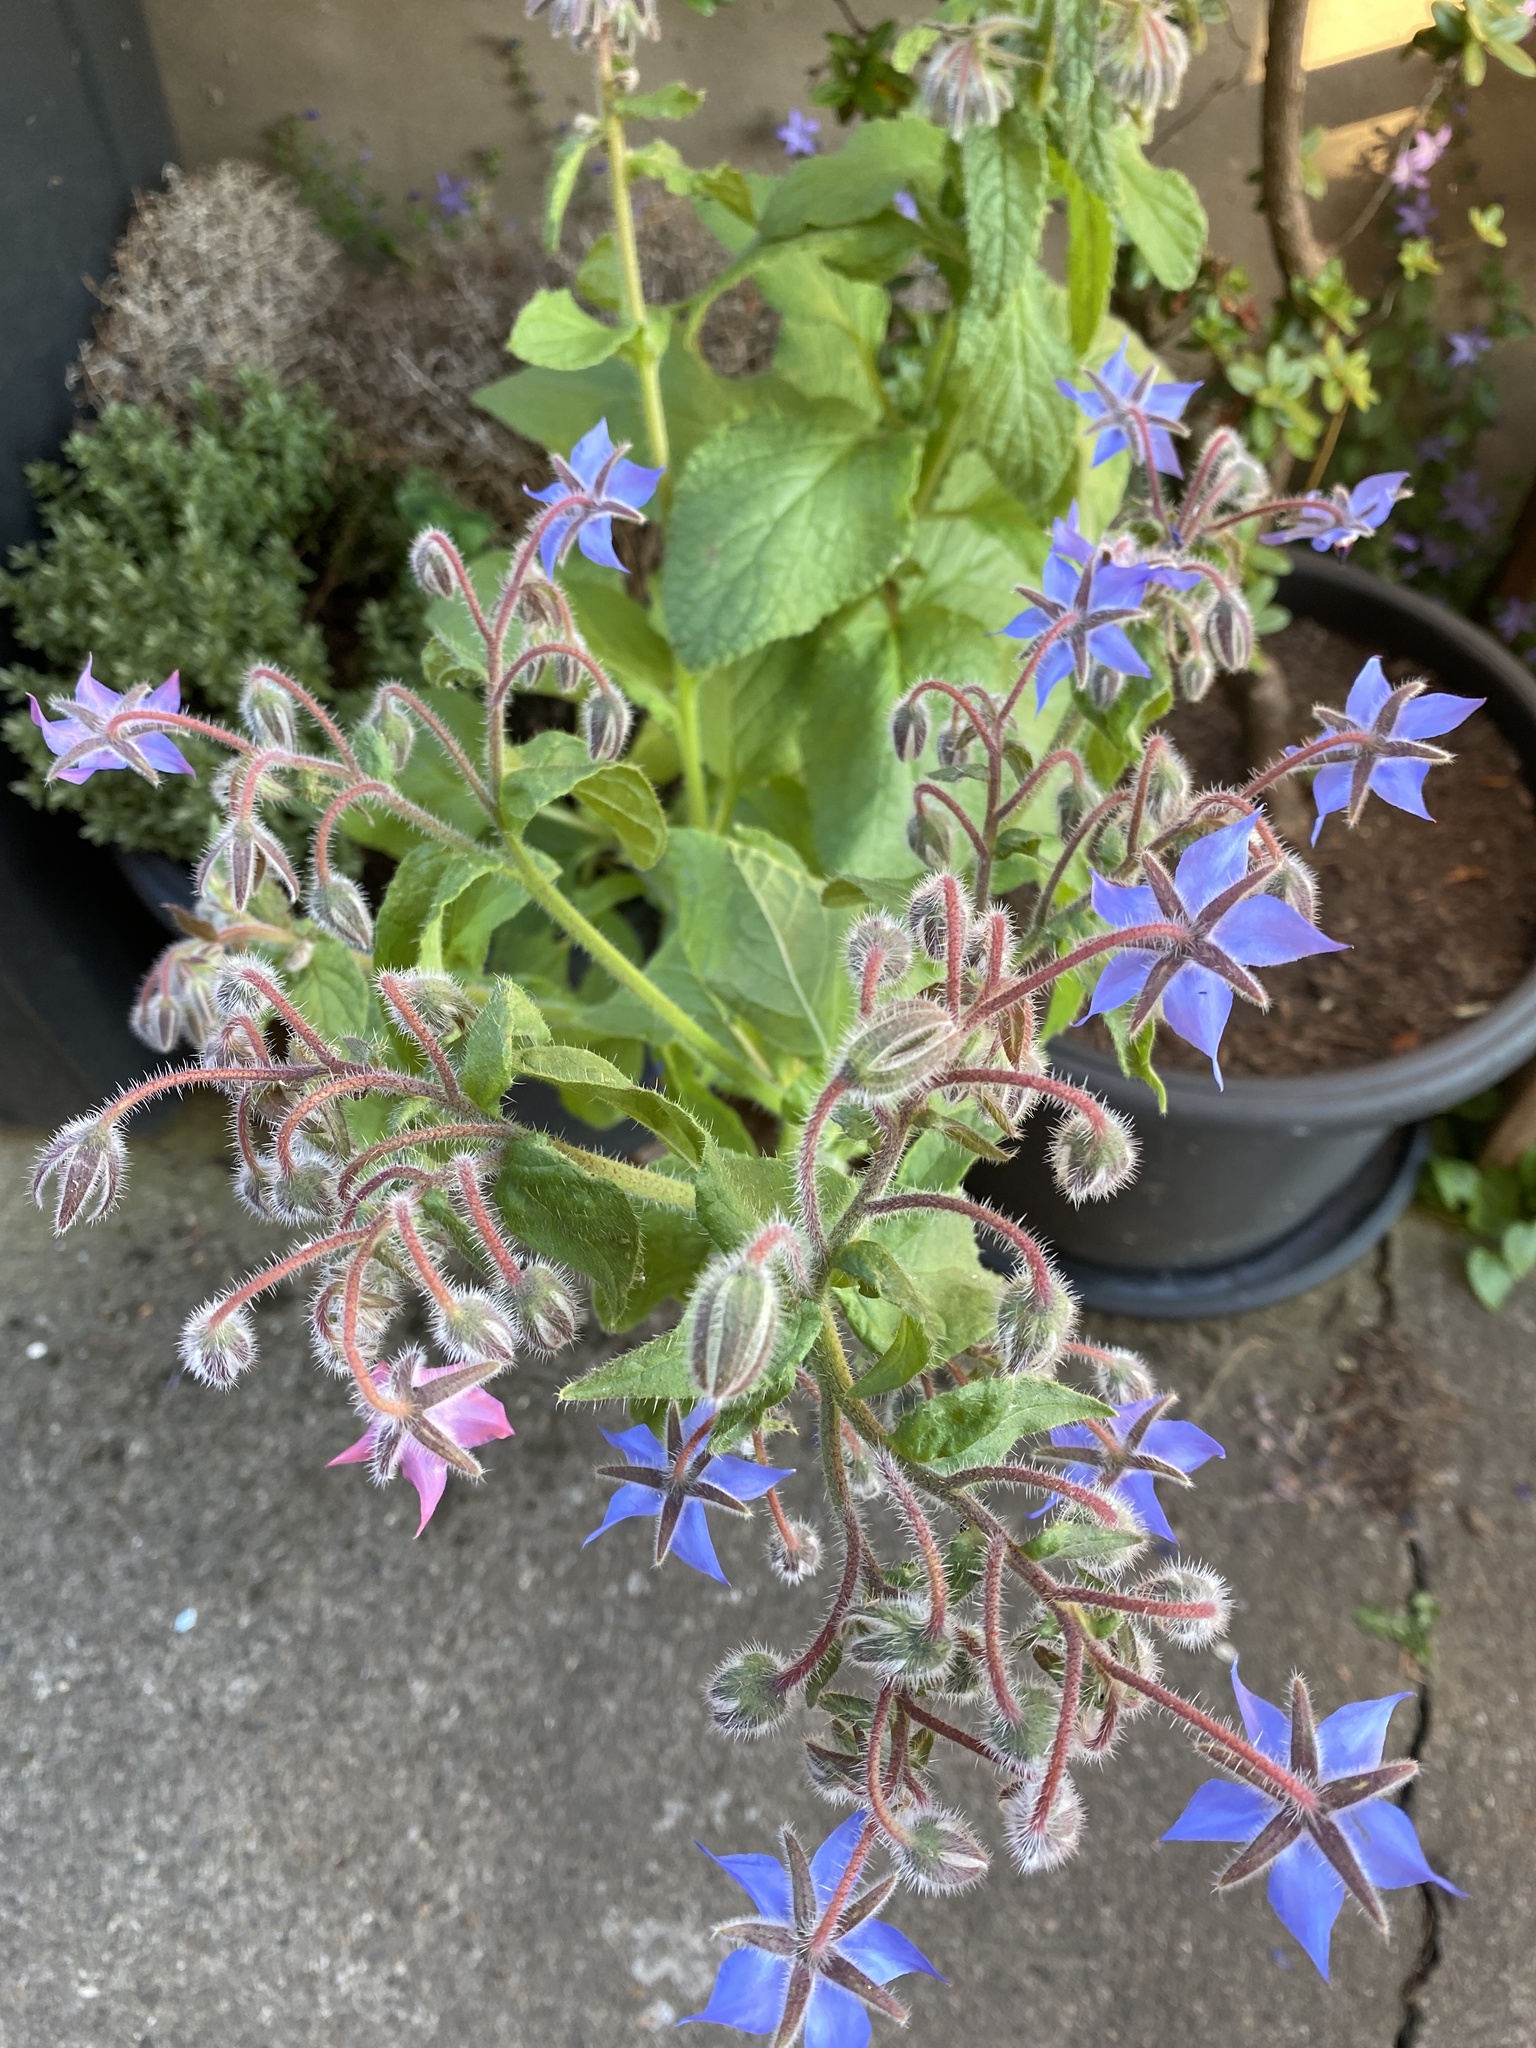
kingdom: Plantae
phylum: Tracheophyta
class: Magnoliopsida
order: Boraginales
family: Boraginaceae
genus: Borago
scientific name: Borago officinalis
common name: Borage
